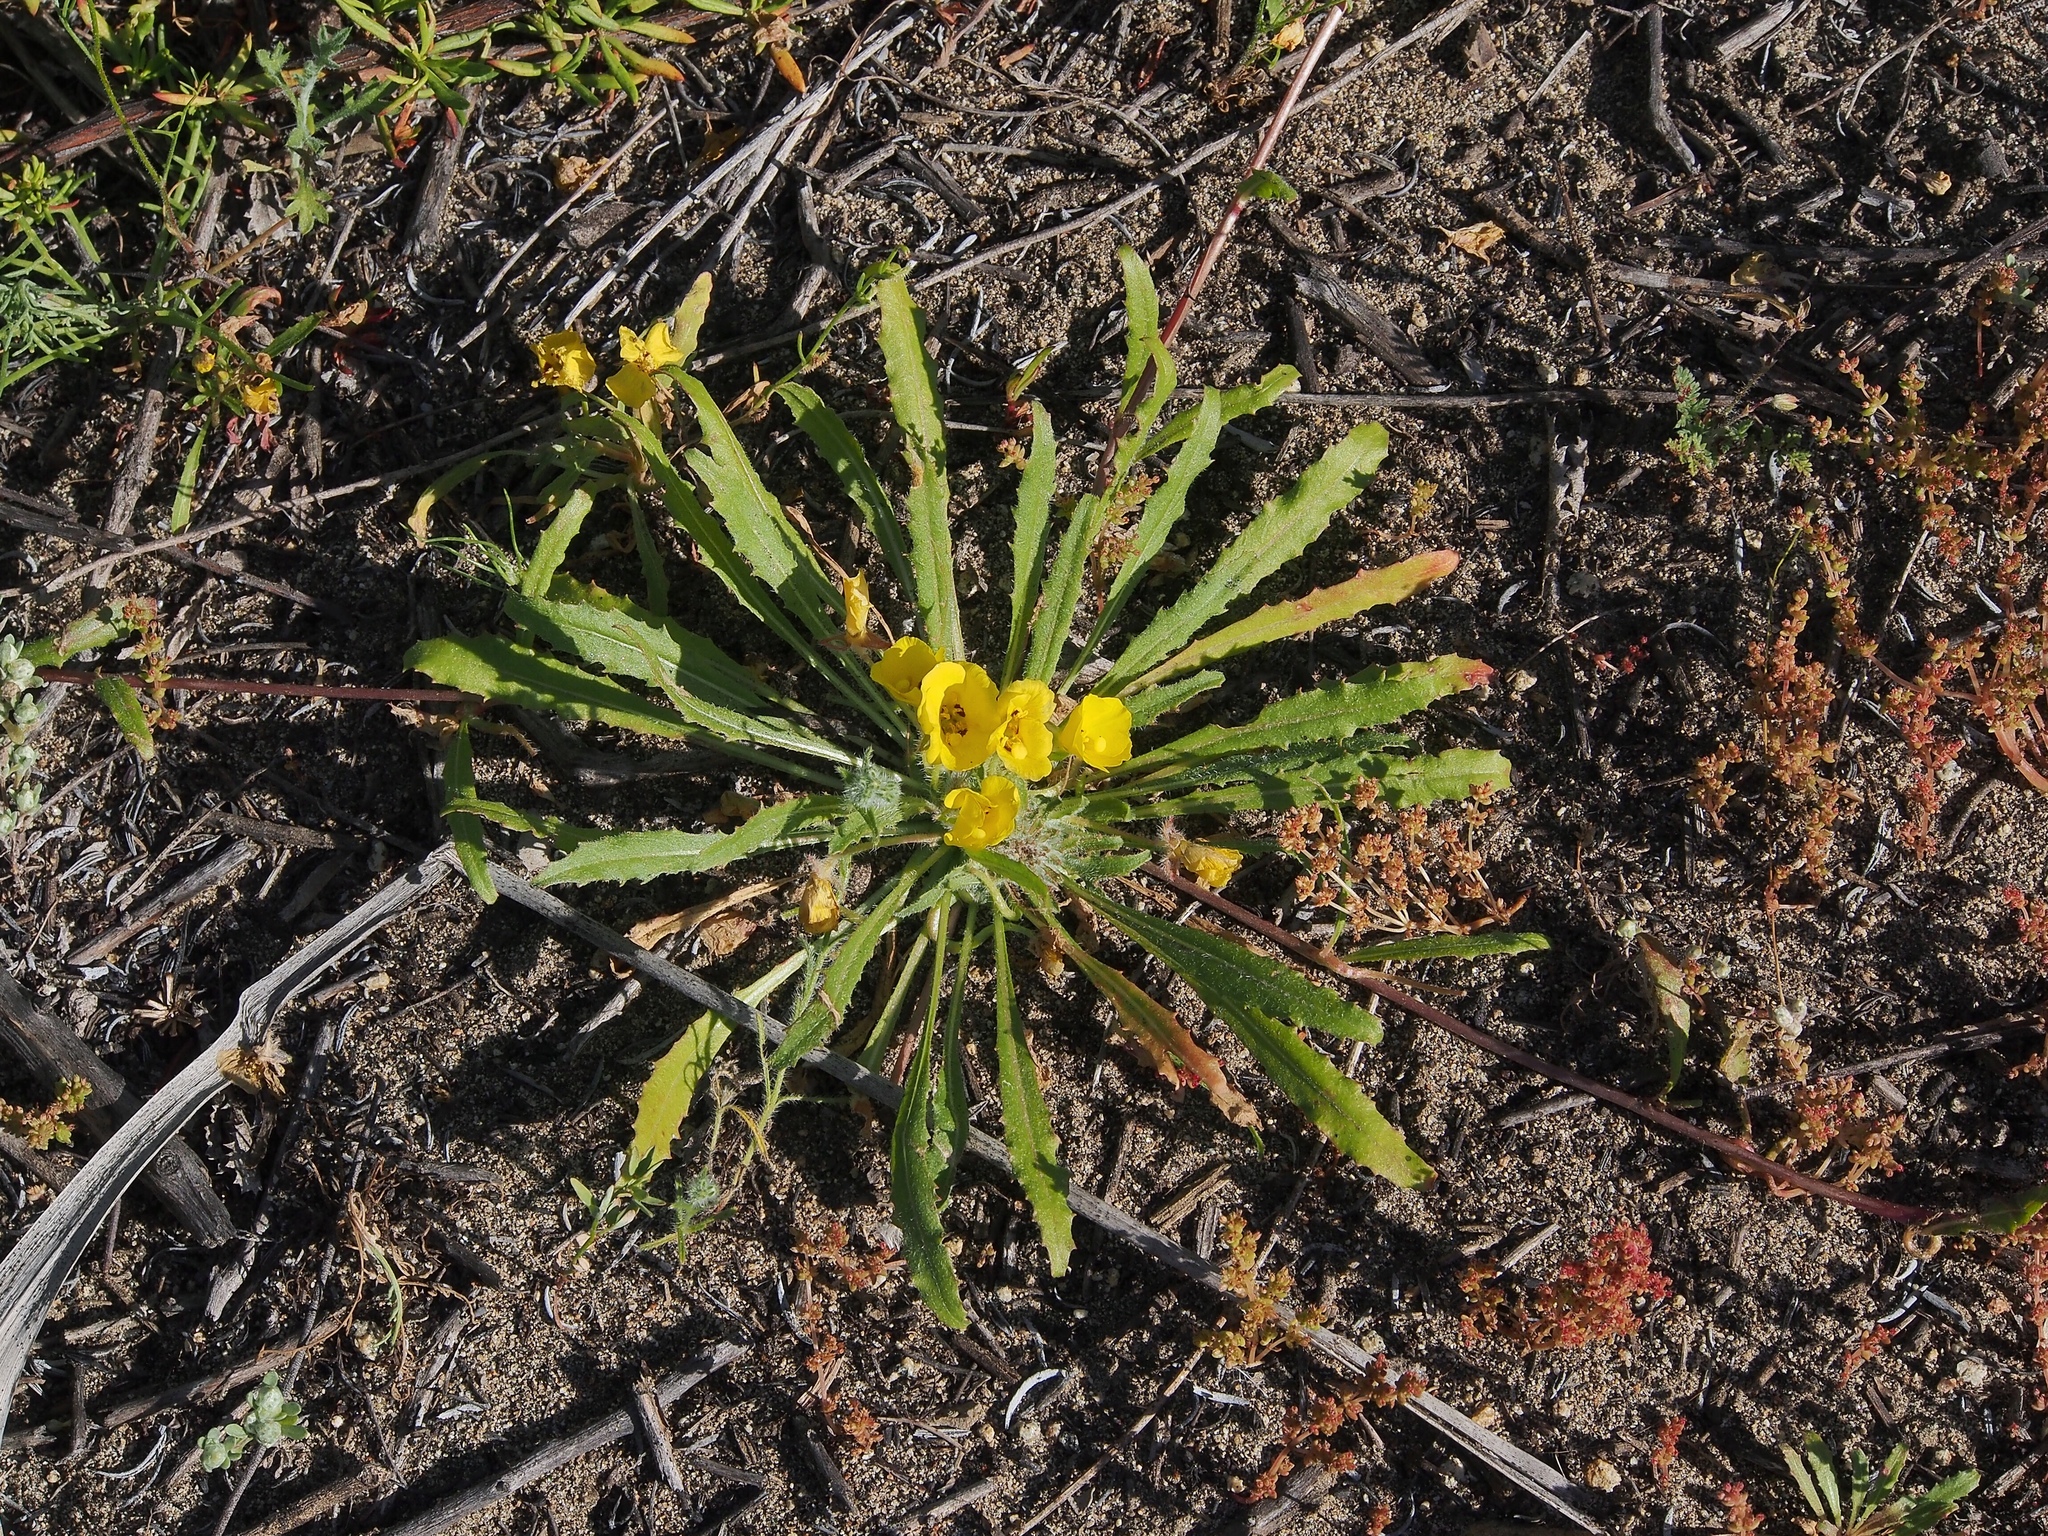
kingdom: Plantae
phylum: Tracheophyta
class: Magnoliopsida
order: Myrtales
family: Onagraceae
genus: Camissoniopsis
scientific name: Camissoniopsis bistorta
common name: Southern suncup
